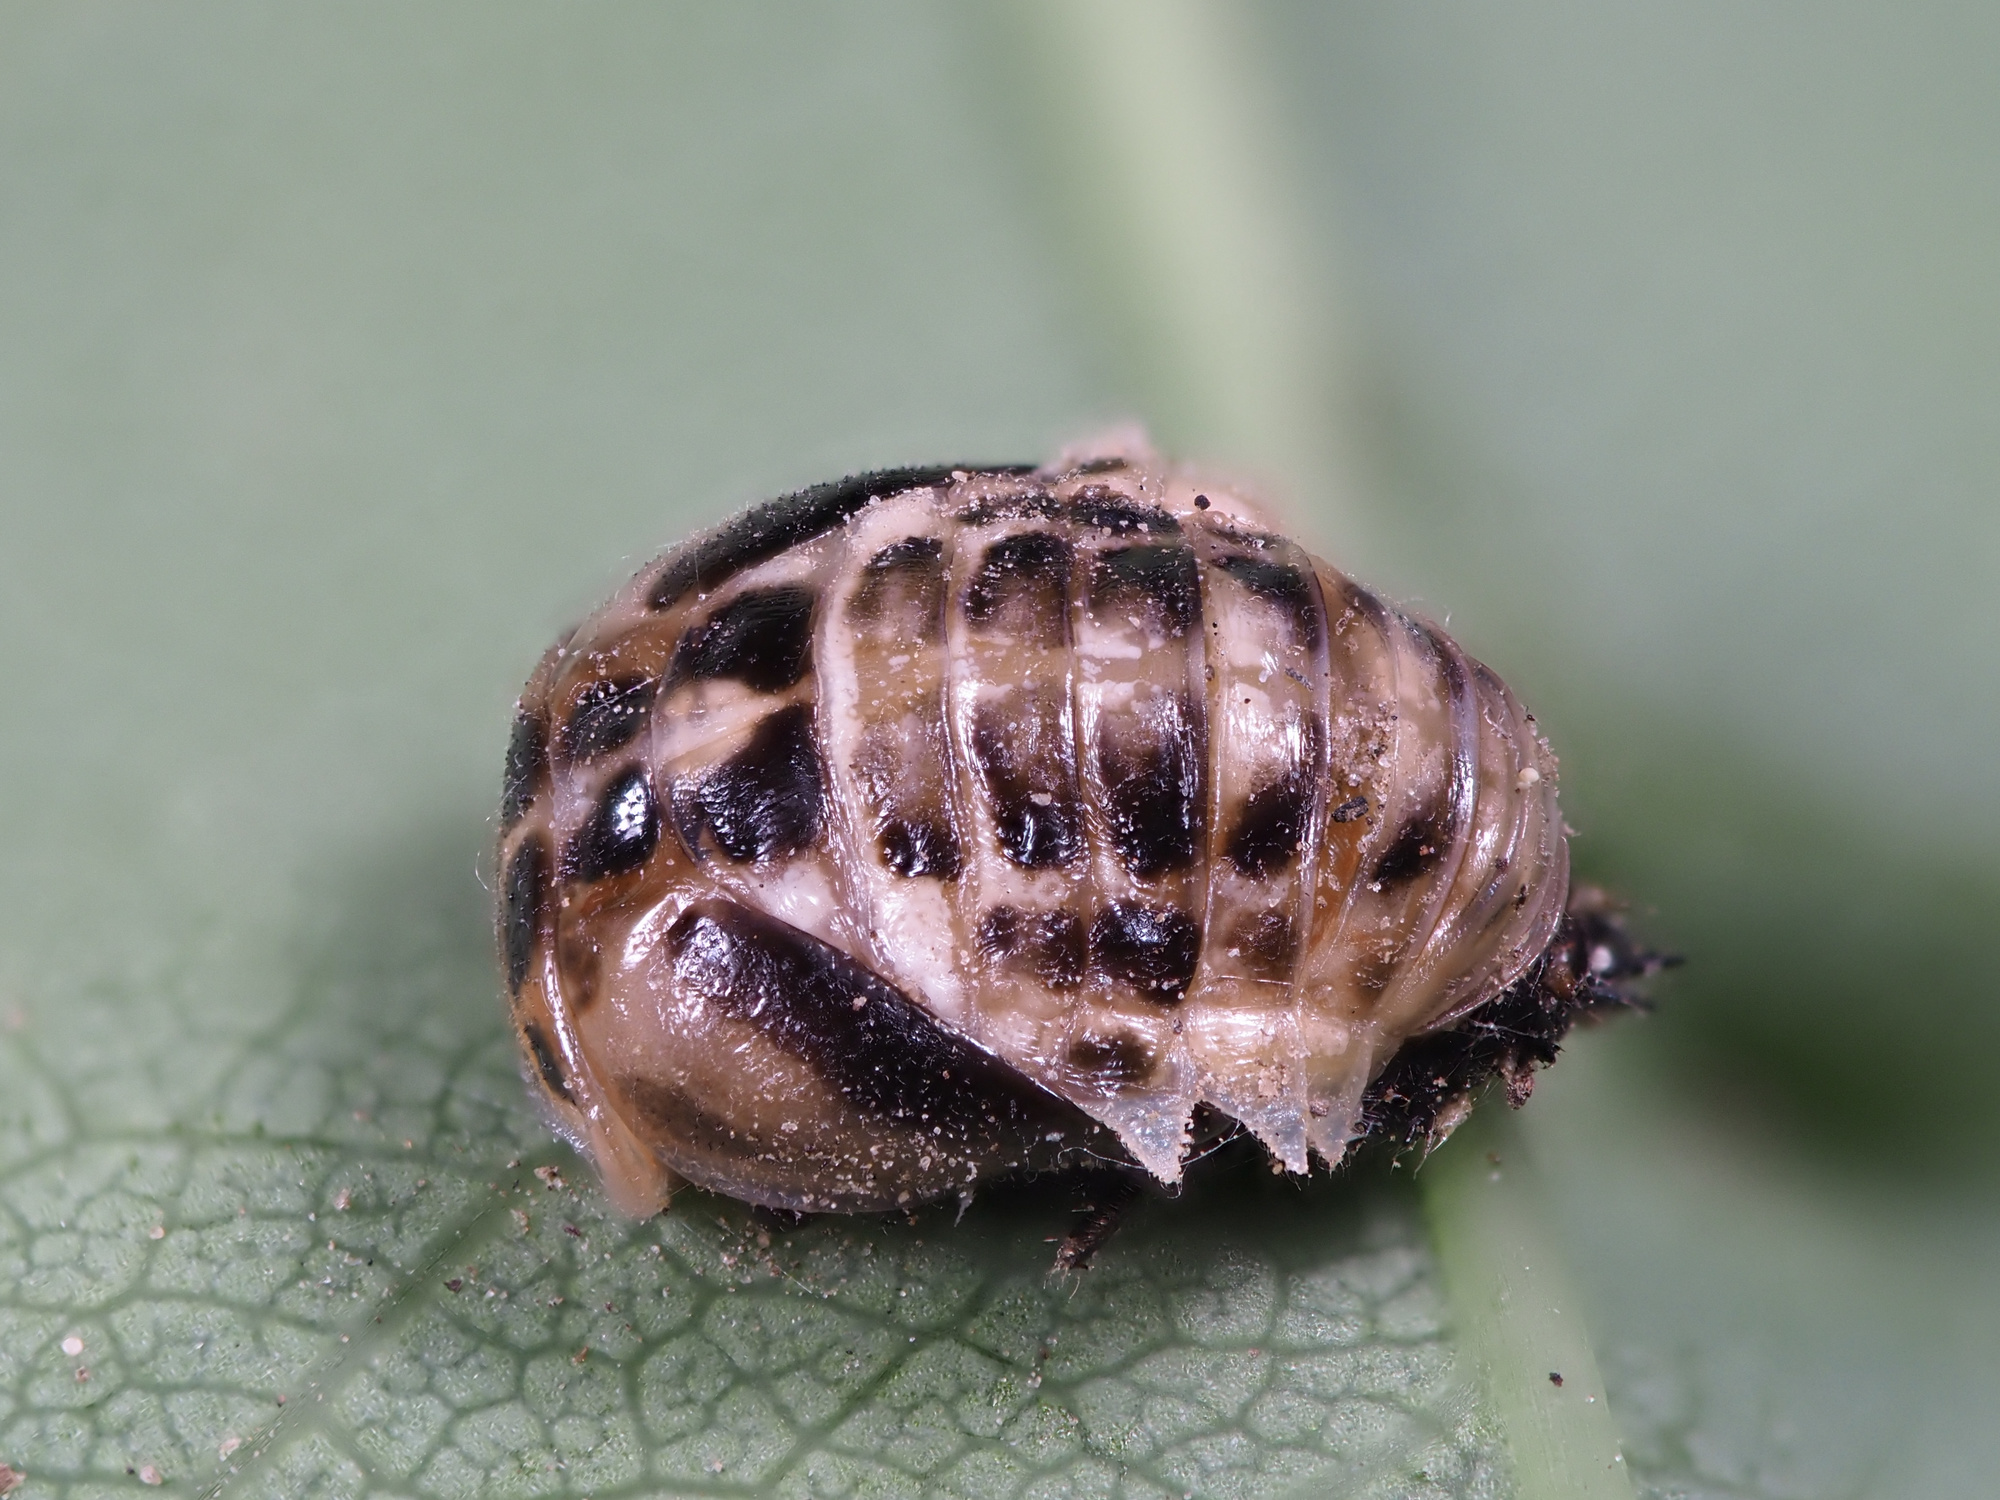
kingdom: Animalia
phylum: Arthropoda
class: Insecta
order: Coleoptera
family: Coccinellidae
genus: Calvia
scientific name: Calvia quatuordecimguttata
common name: Cream-spot ladybird
